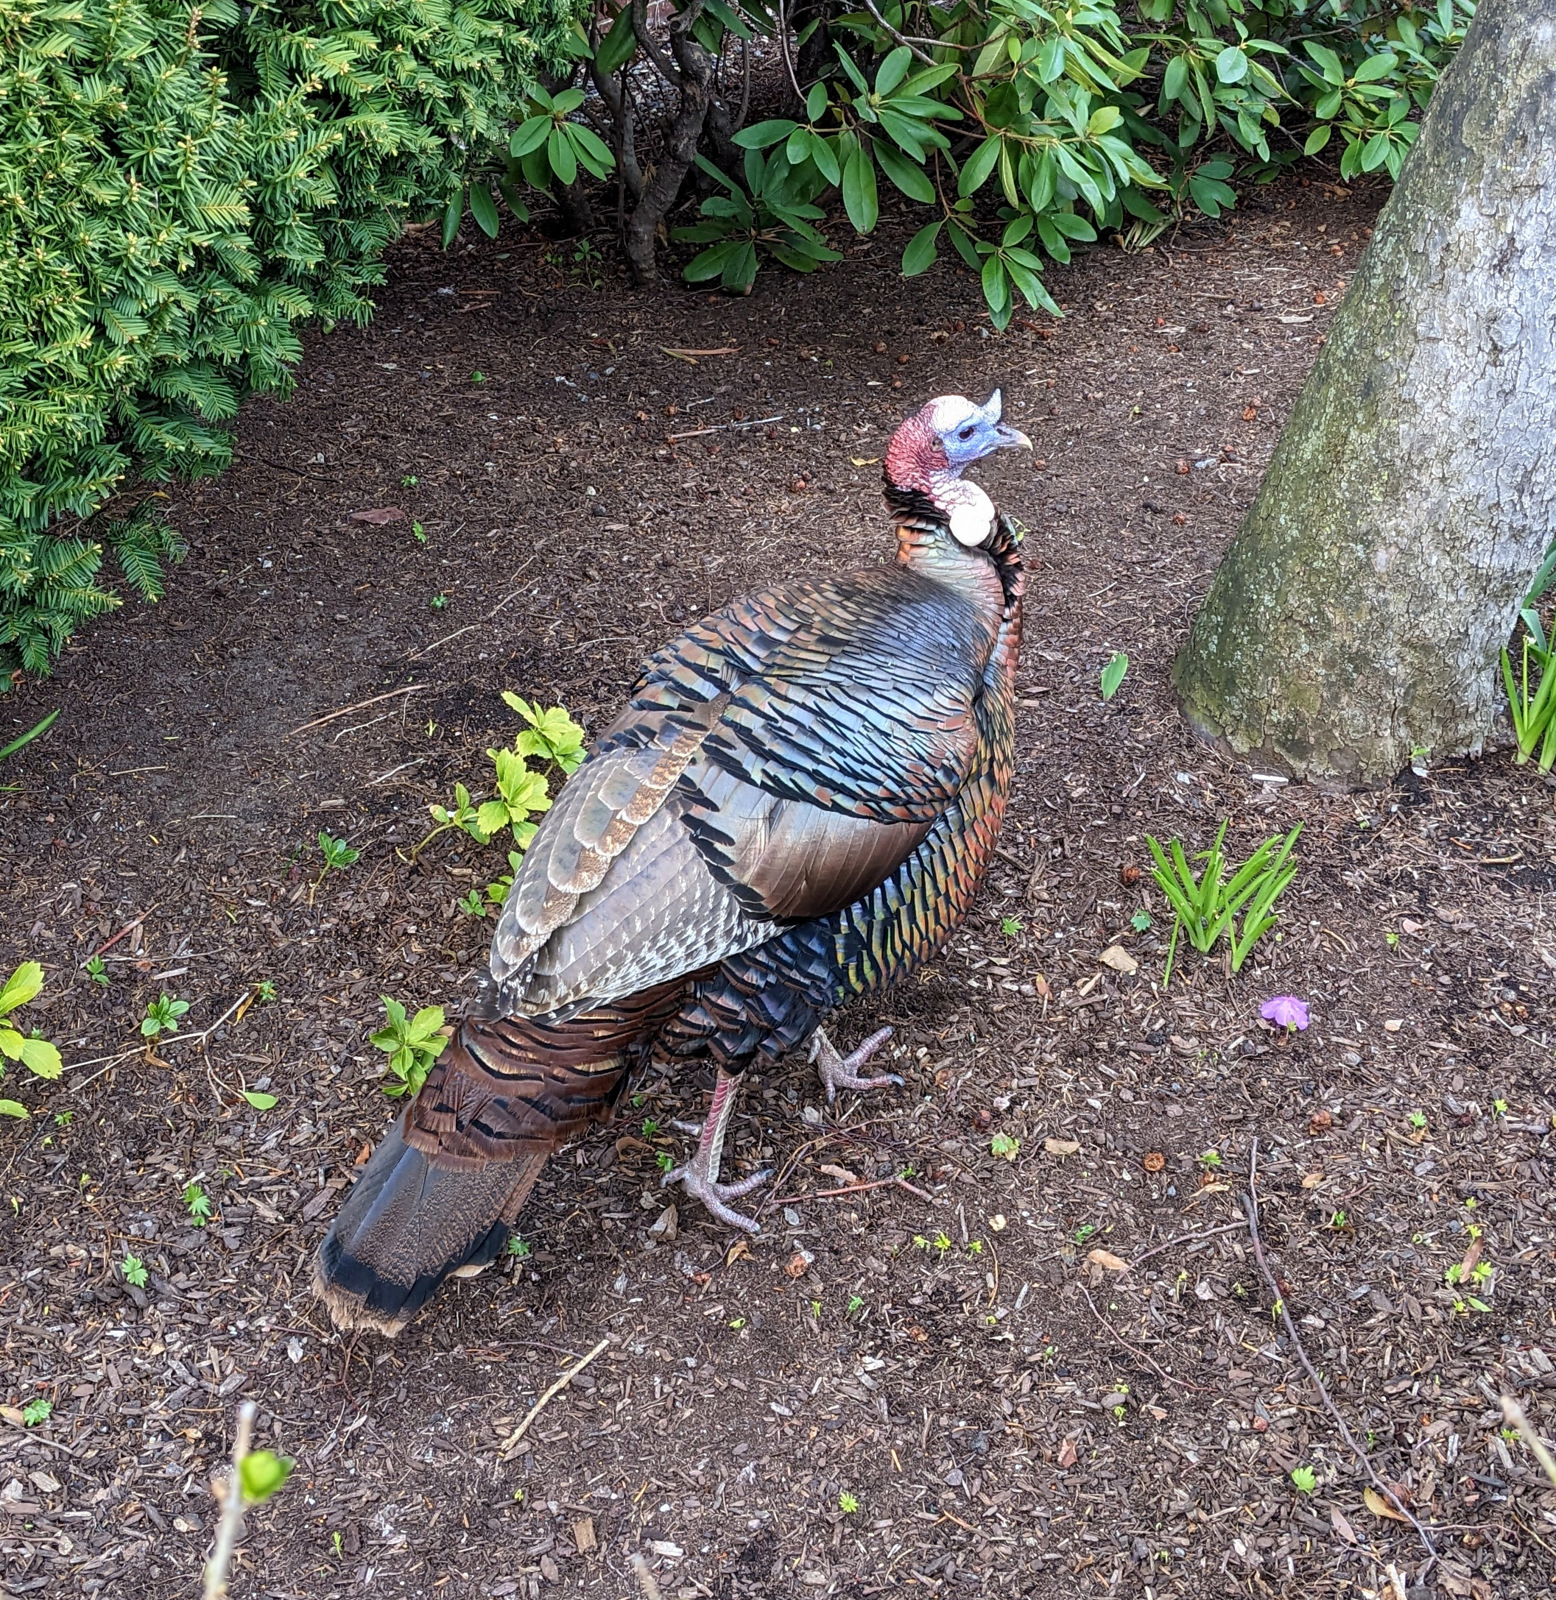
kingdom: Animalia
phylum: Chordata
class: Aves
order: Galliformes
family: Phasianidae
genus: Meleagris
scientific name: Meleagris gallopavo
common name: Wild turkey
